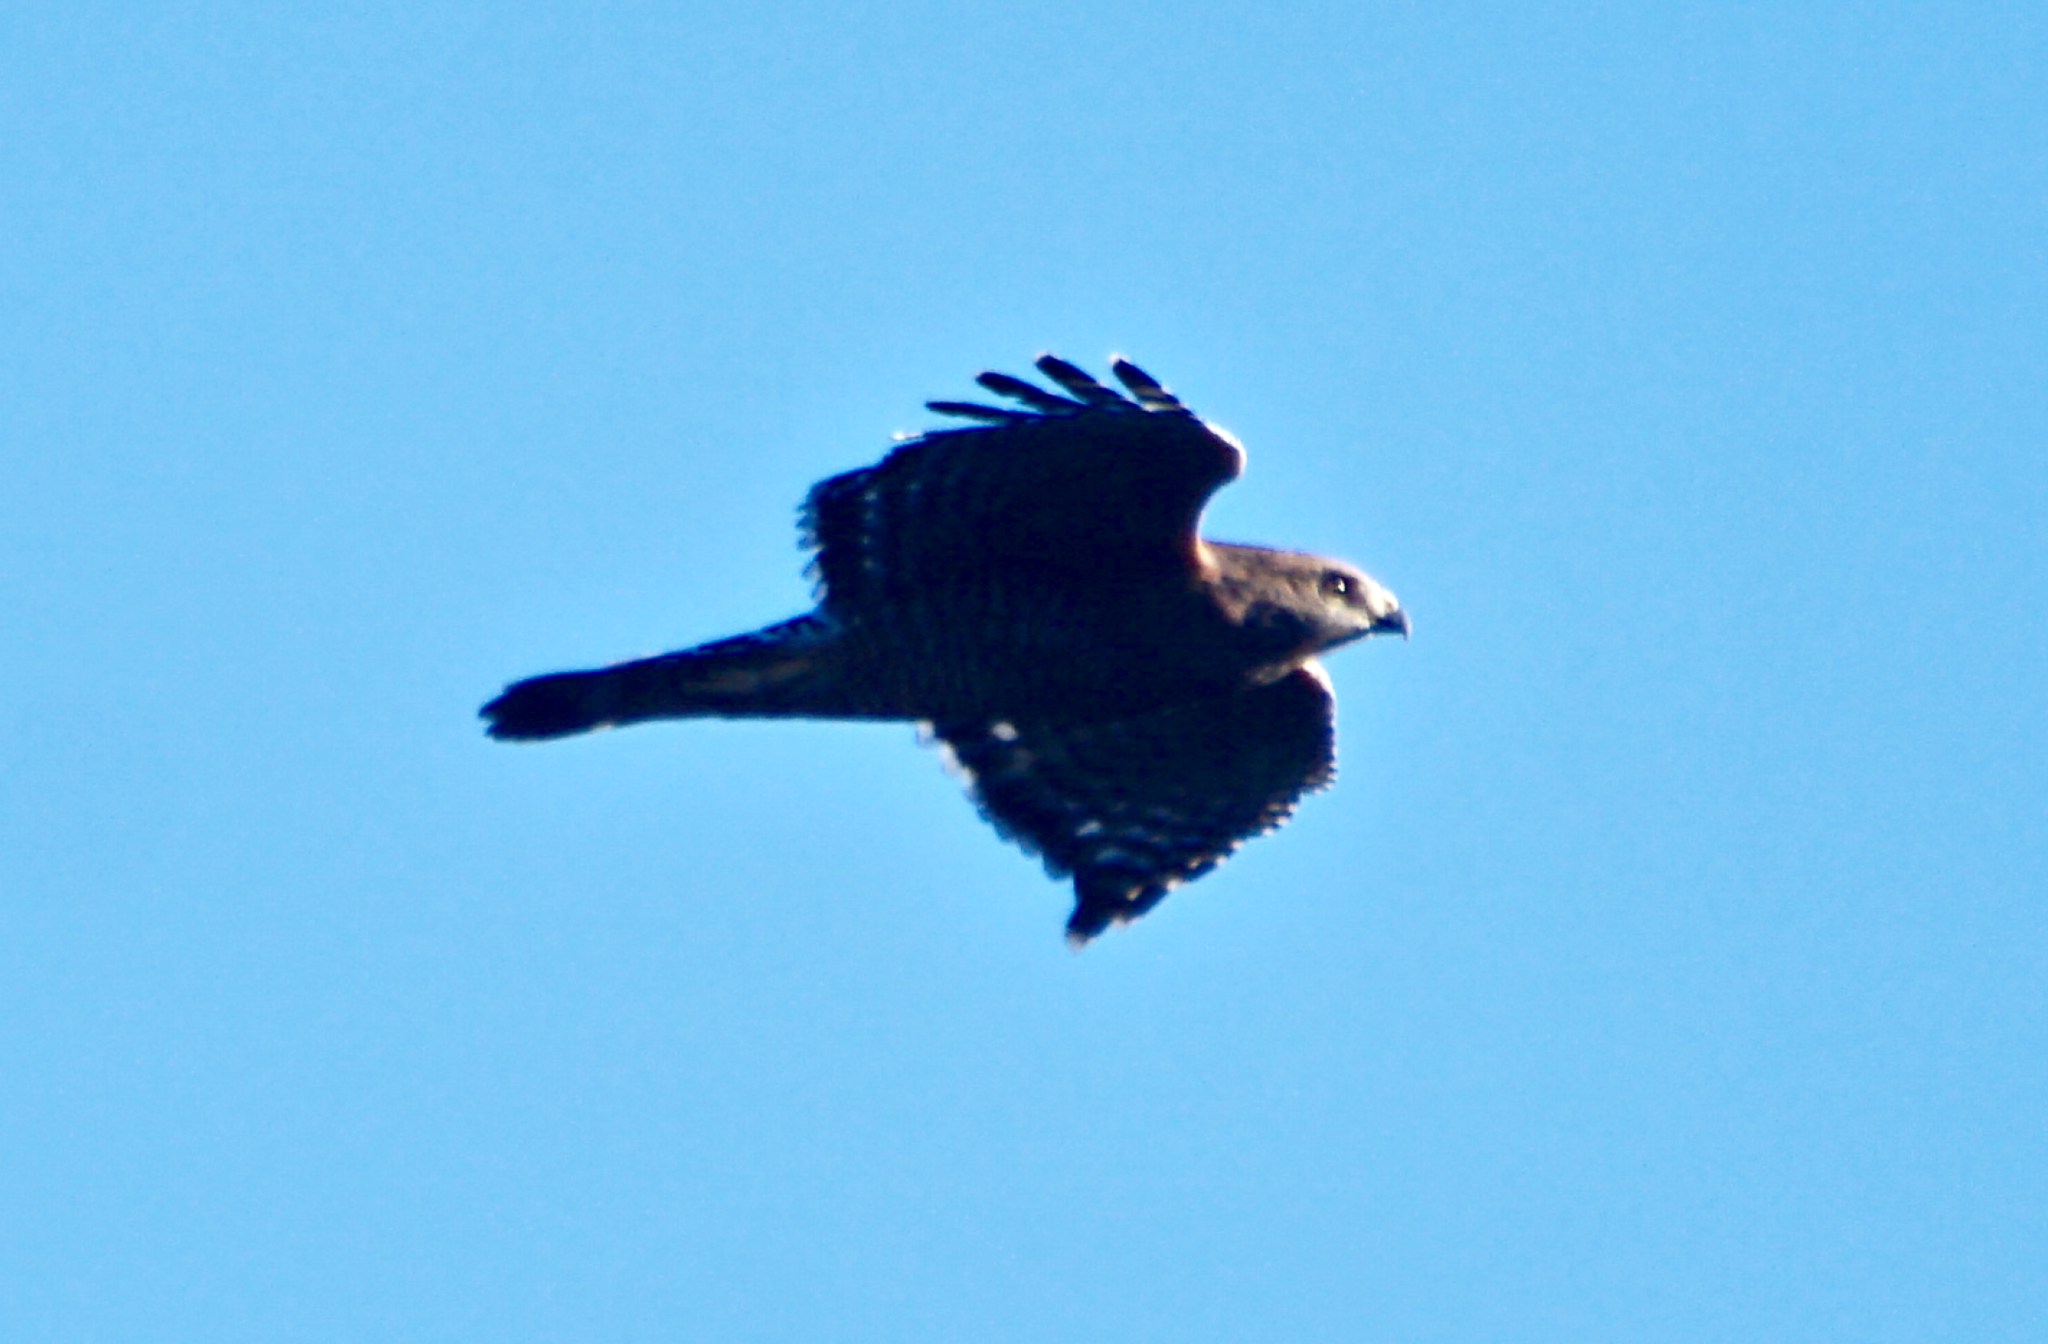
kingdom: Animalia
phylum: Chordata
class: Aves
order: Accipitriformes
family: Accipitridae
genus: Buteo
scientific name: Buteo lineatus
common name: Red-shouldered hawk
